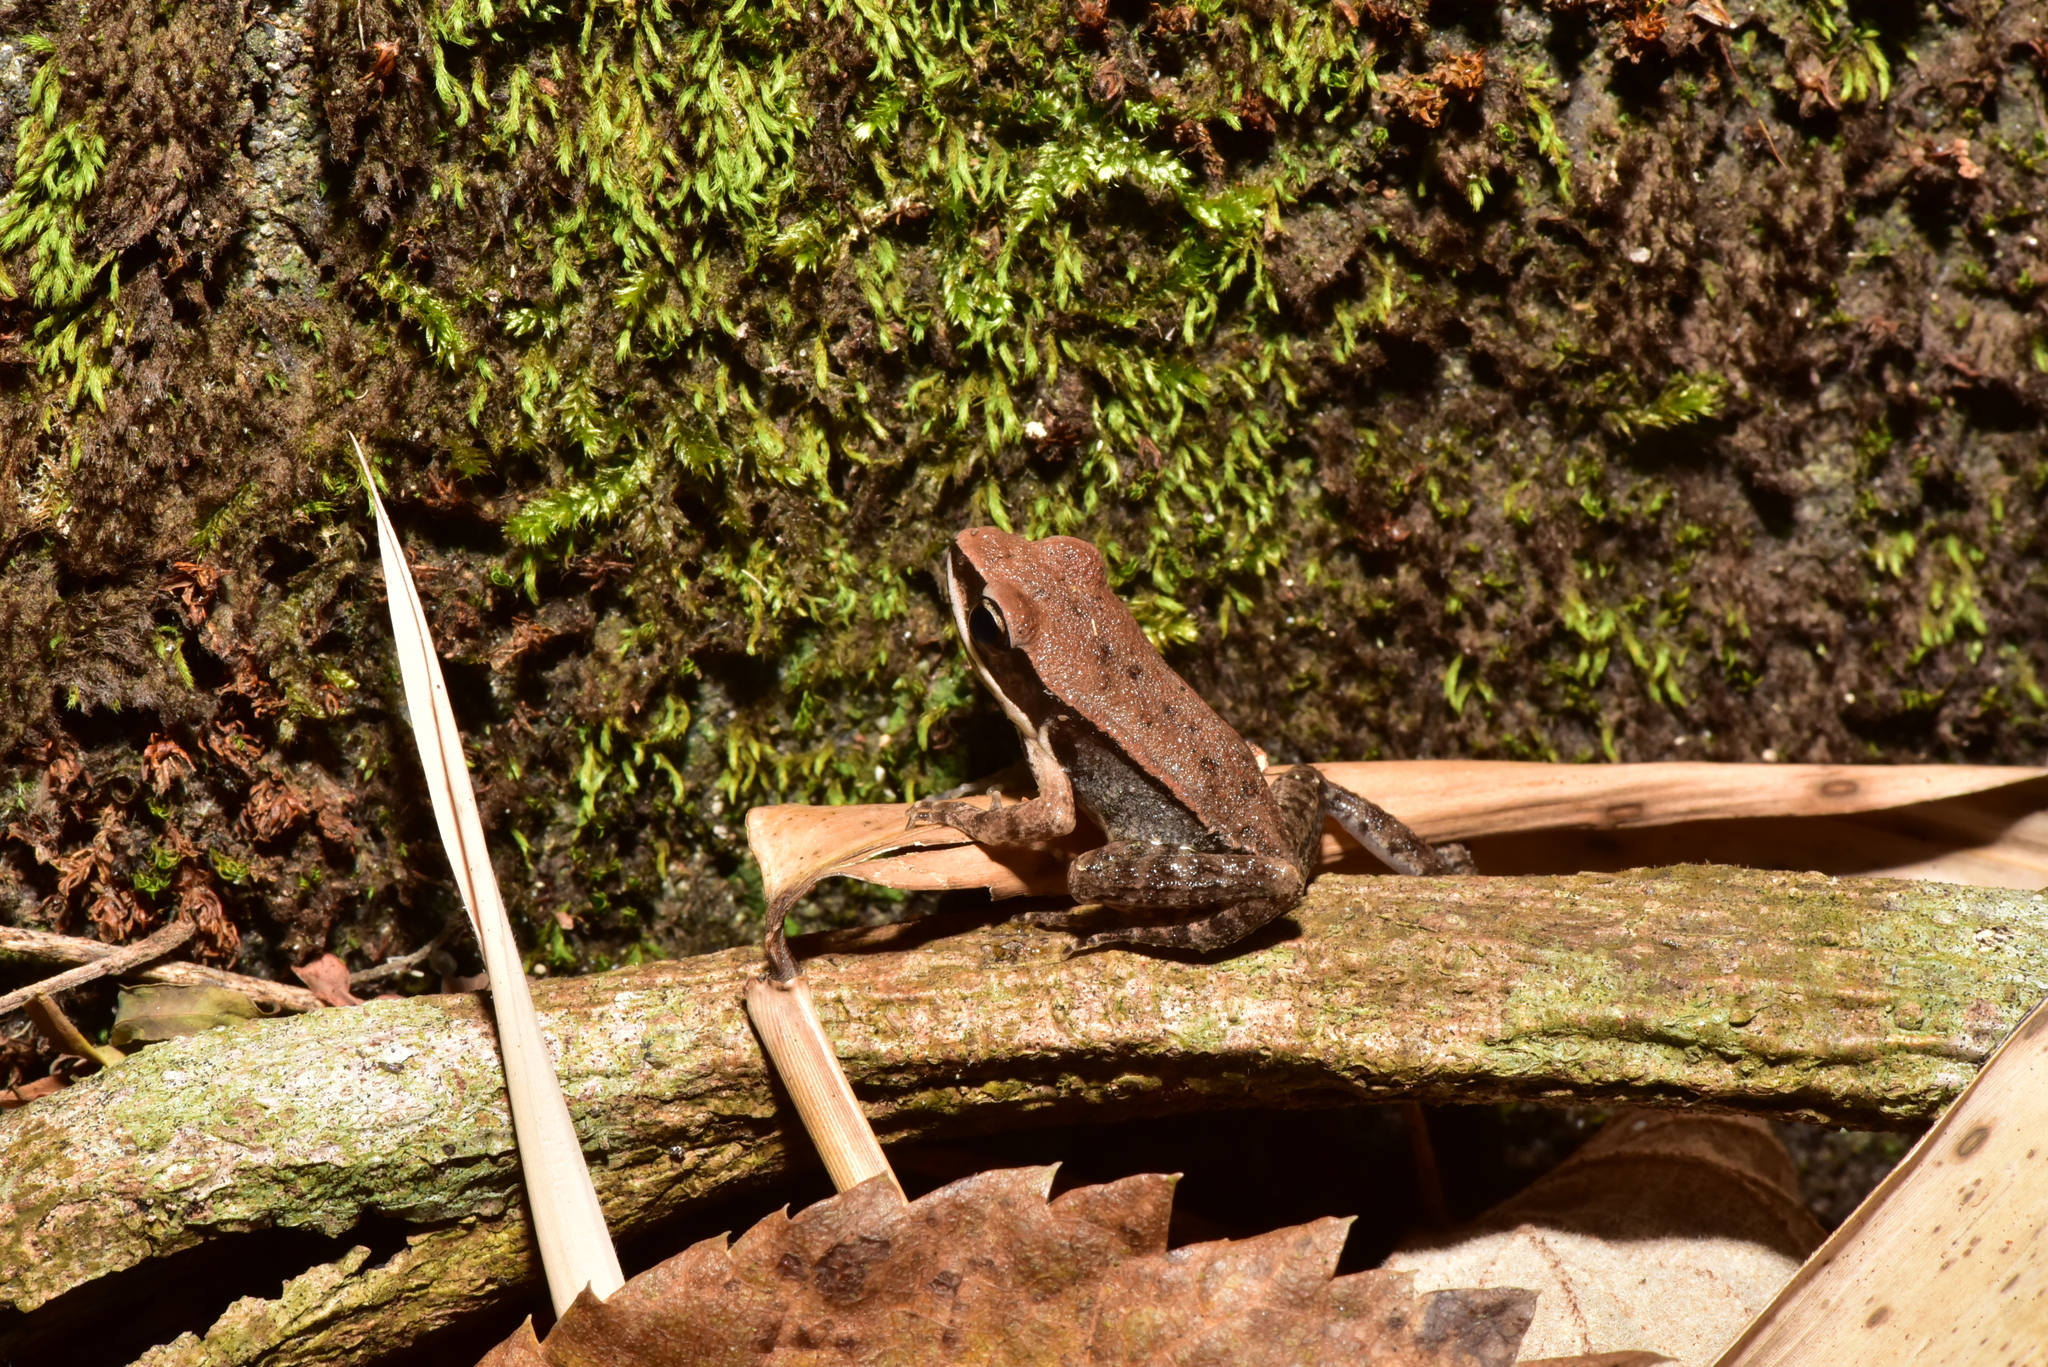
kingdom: Animalia
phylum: Chordata
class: Amphibia
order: Anura
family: Ranidae
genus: Hylarana
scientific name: Hylarana latouchii
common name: Broad-folded frog
